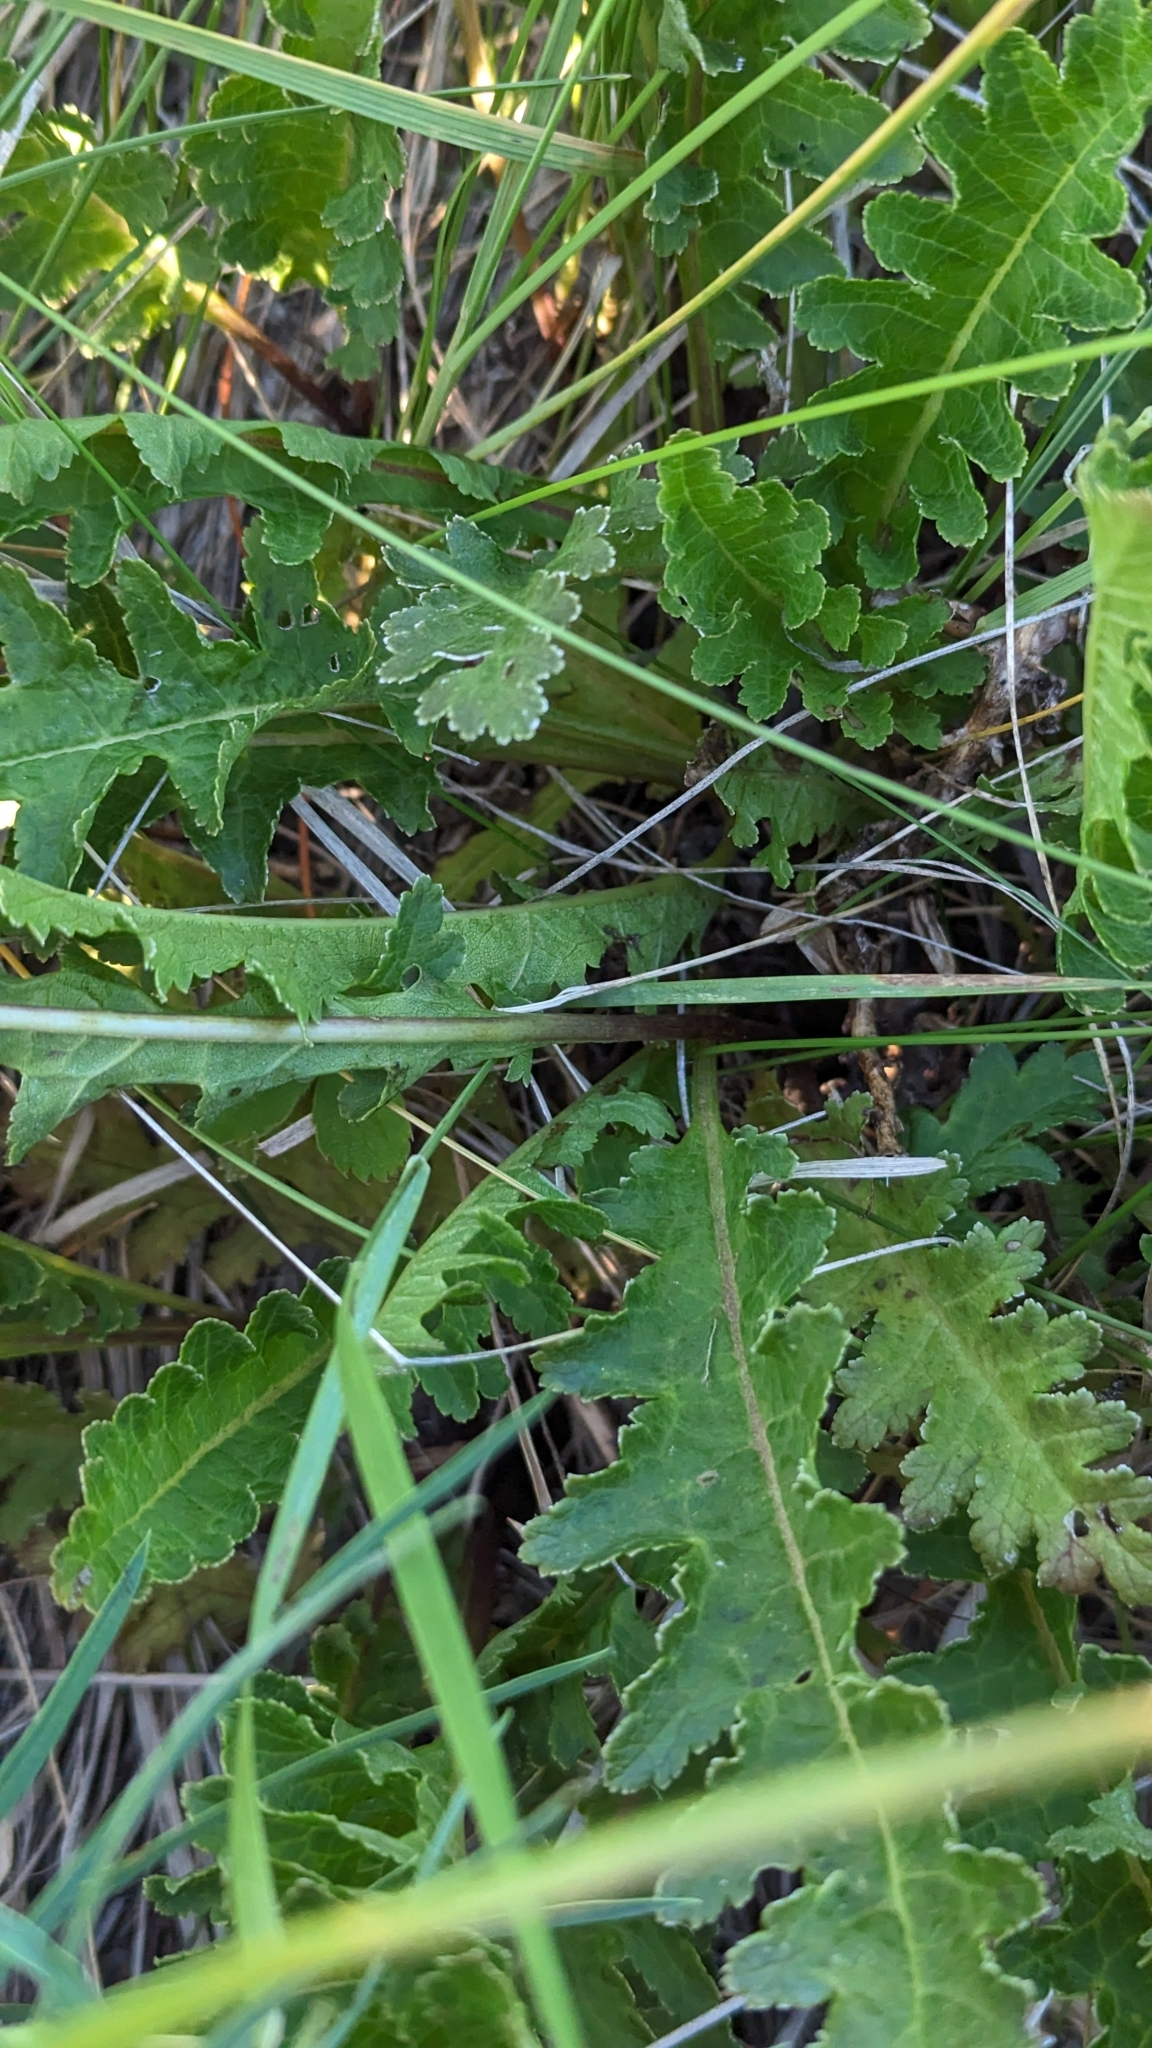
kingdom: Plantae
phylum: Tracheophyta
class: Magnoliopsida
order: Lamiales
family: Orobanchaceae
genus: Pedicularis
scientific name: Pedicularis canadensis
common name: Early lousewort
